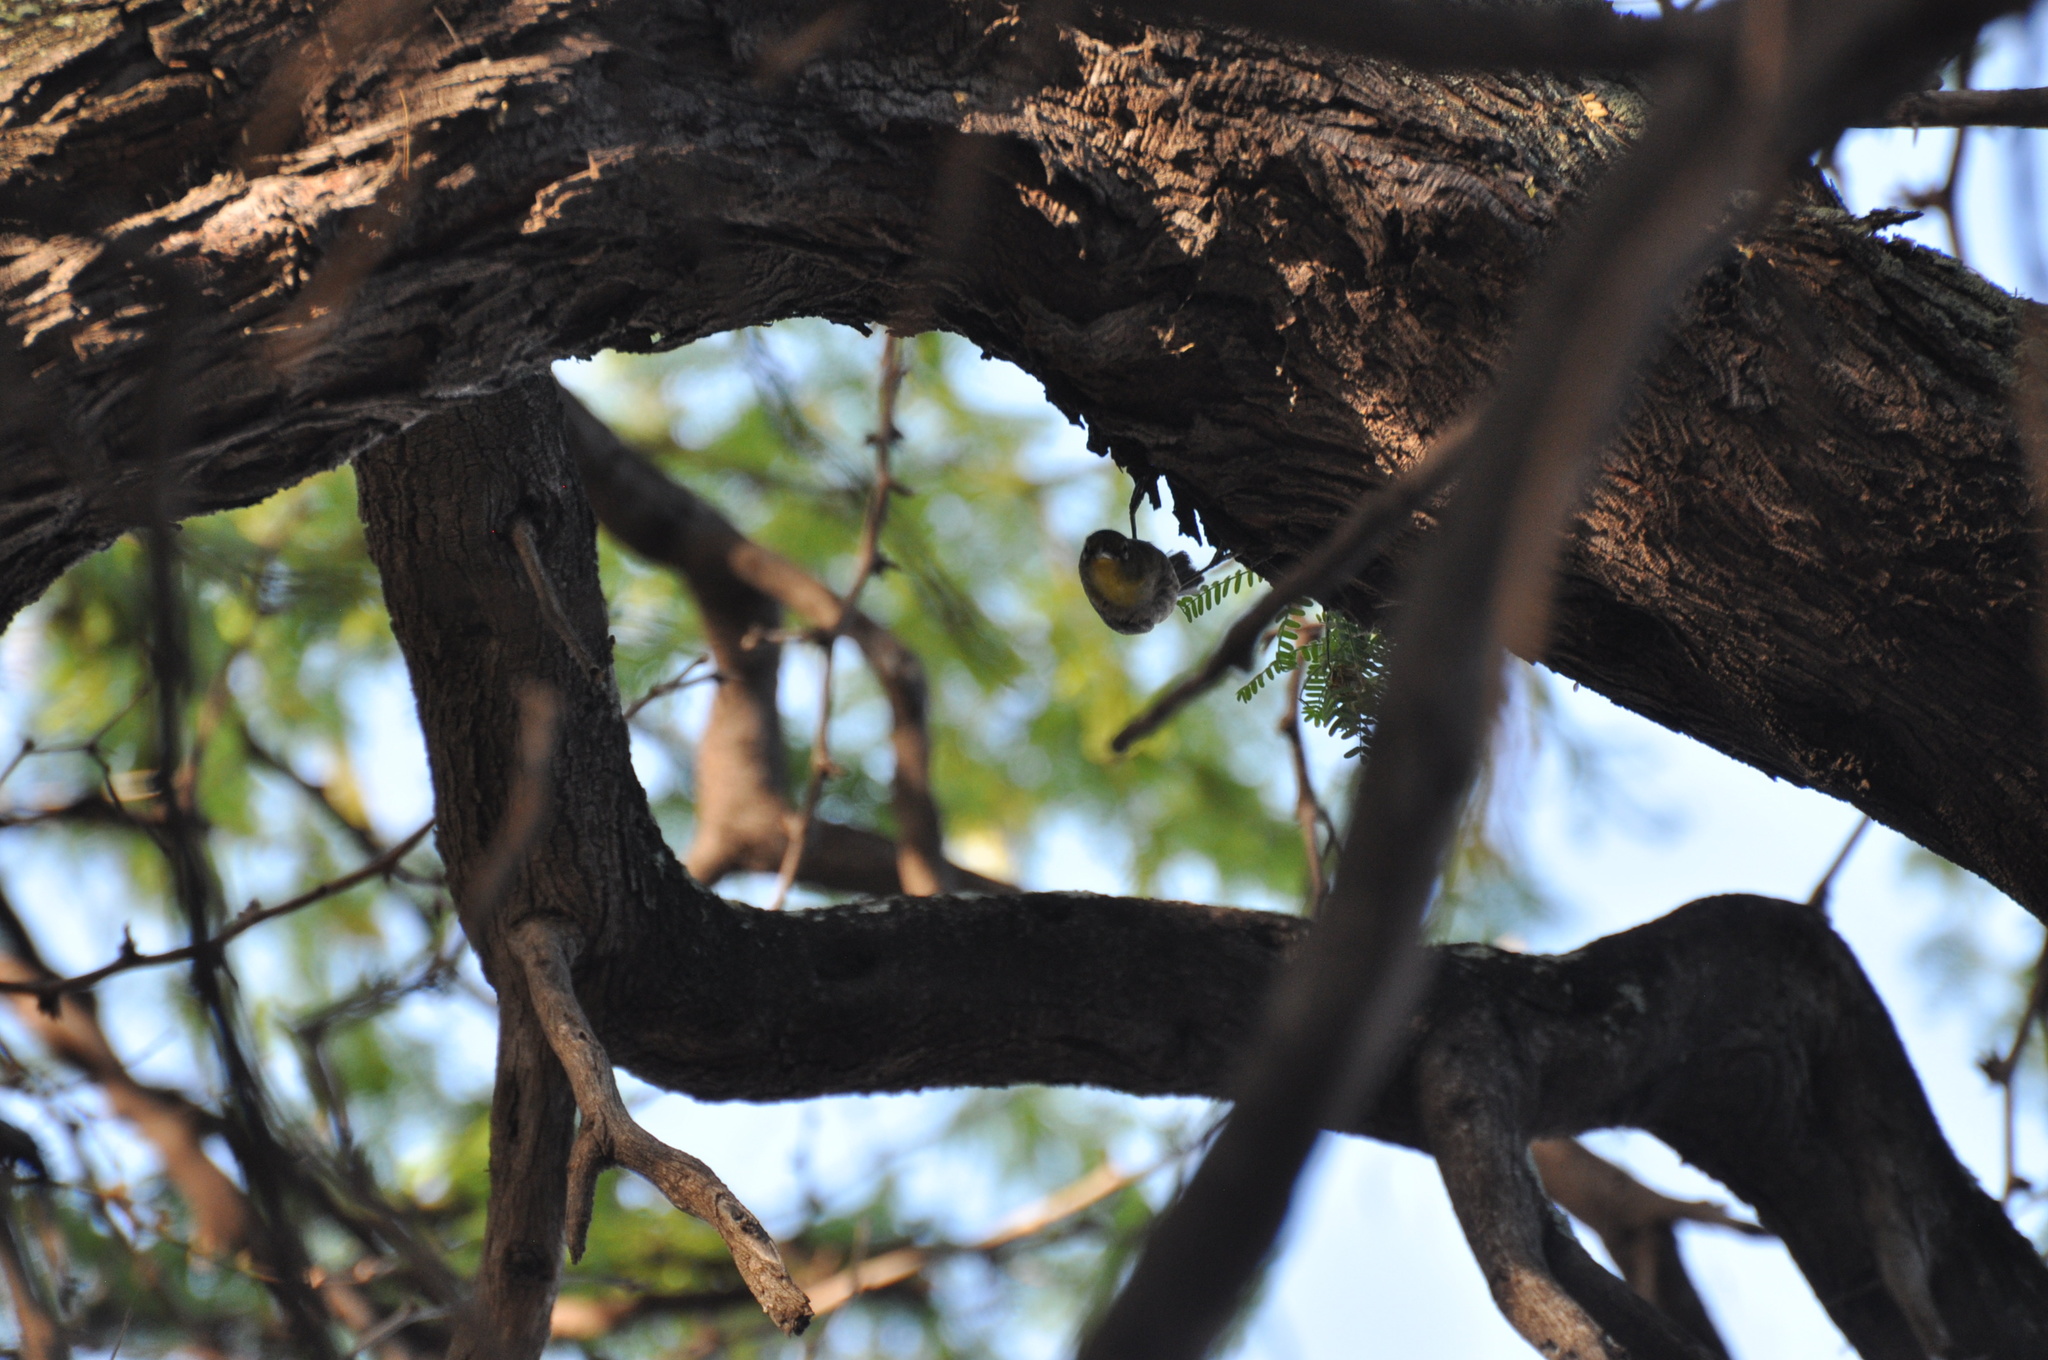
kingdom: Animalia
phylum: Chordata
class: Aves
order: Passeriformes
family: Zosteropidae
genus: Zosterops
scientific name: Zosterops japonicus
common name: Japanese white-eye
